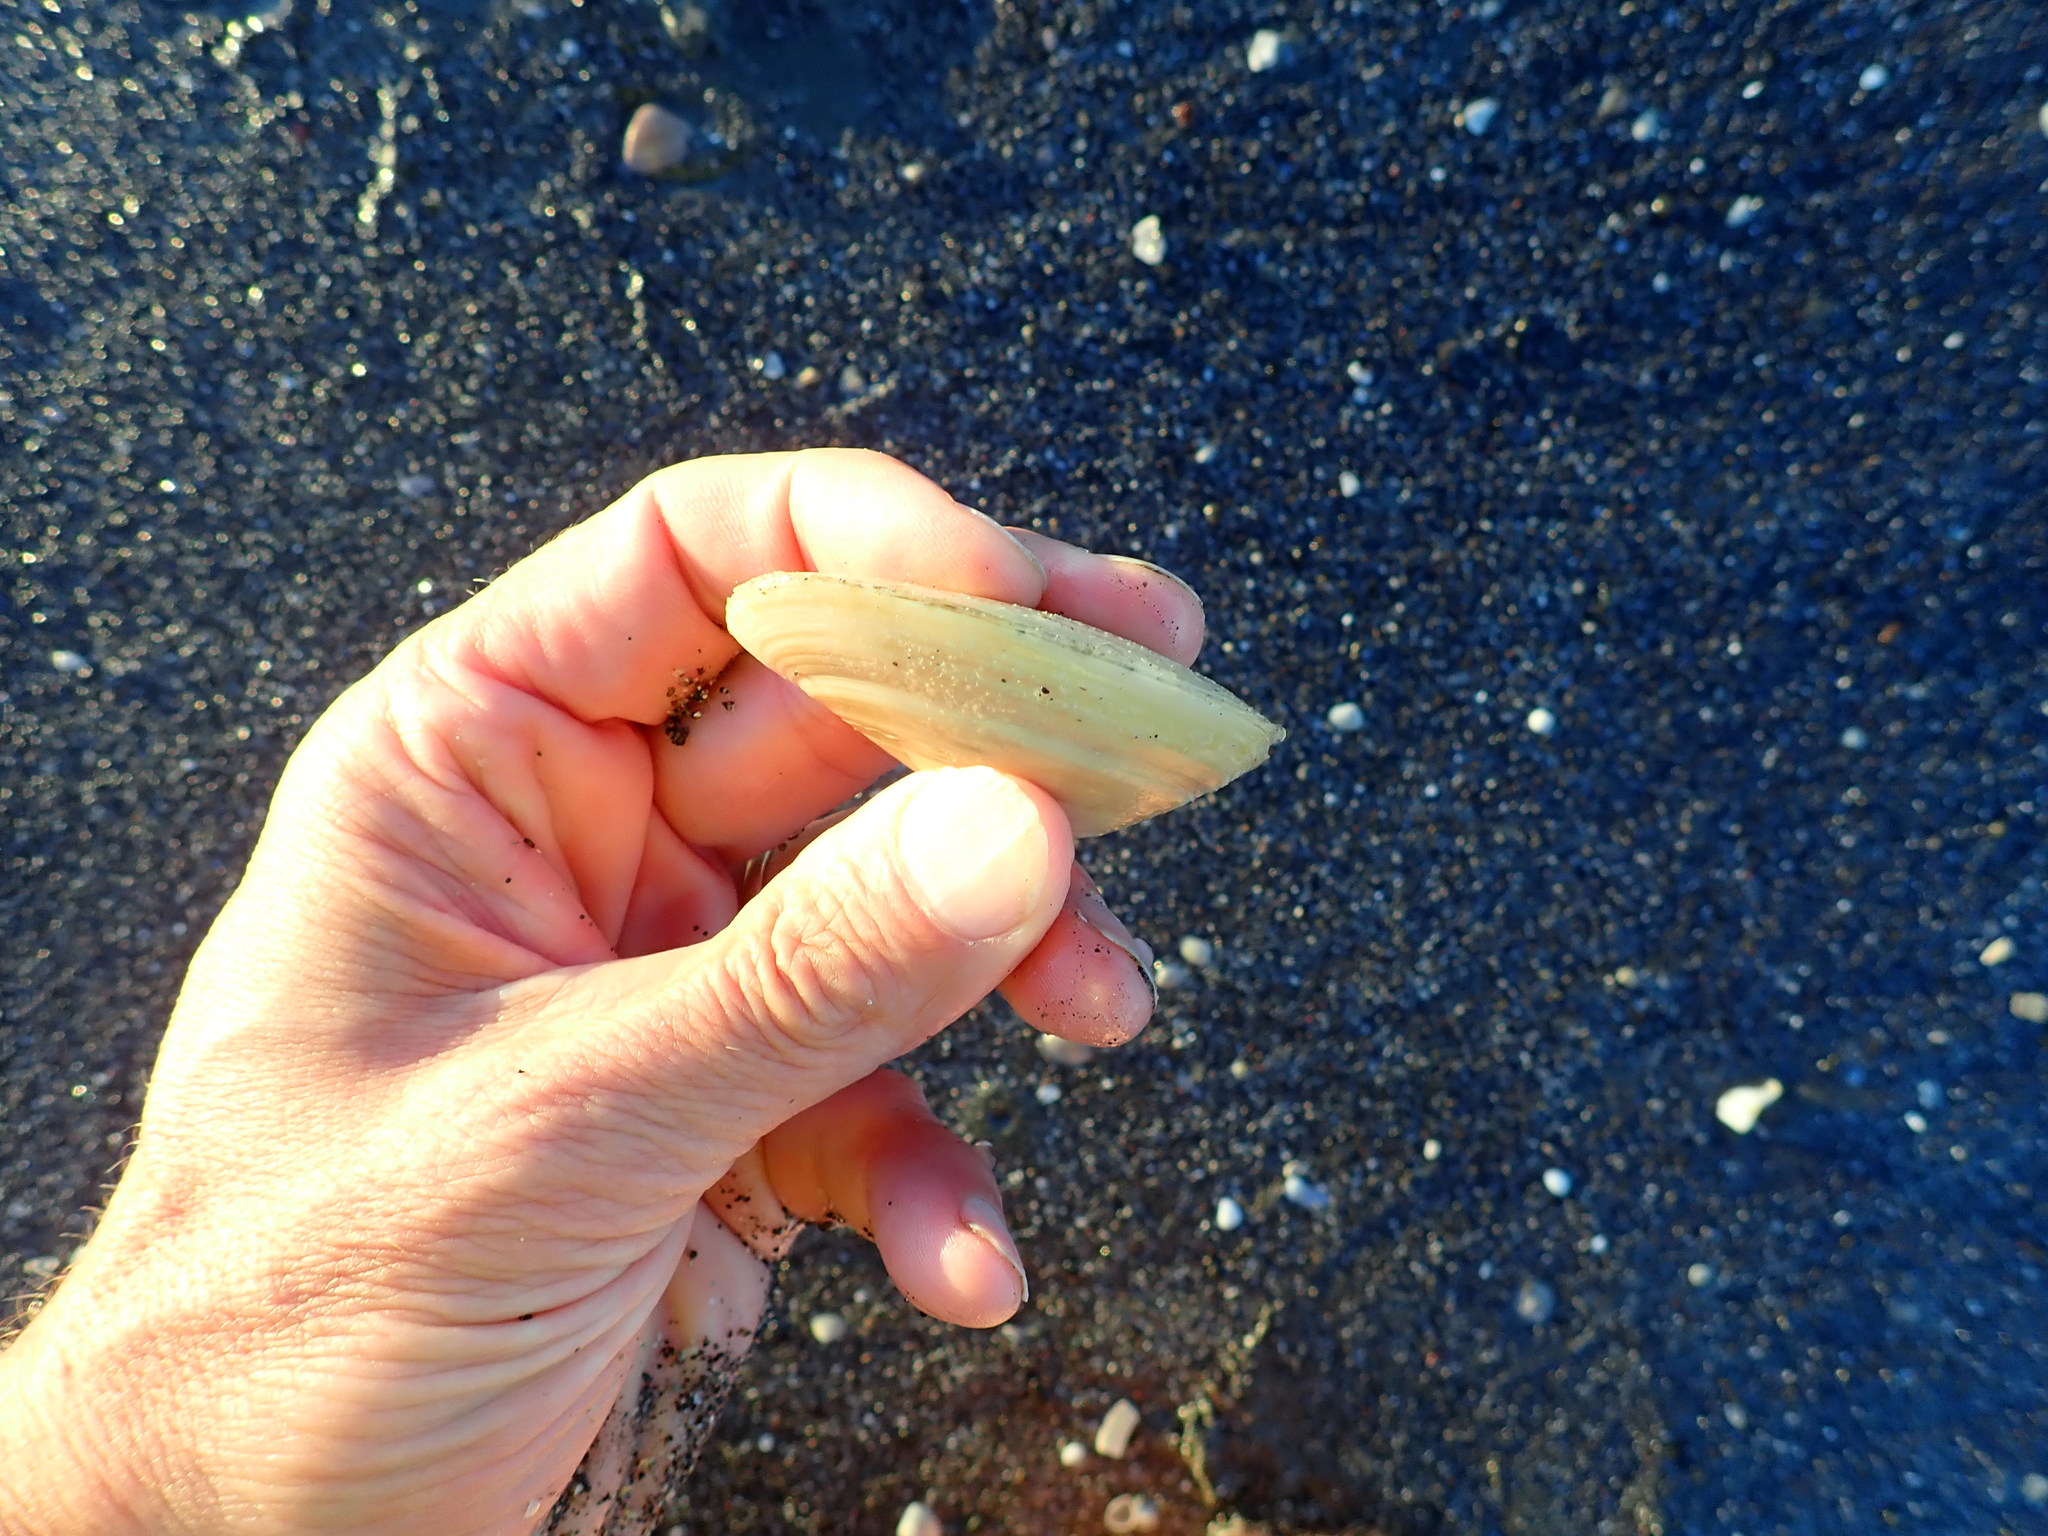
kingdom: Animalia
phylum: Mollusca
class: Bivalvia
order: Venerida
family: Mesodesmatidae
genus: Paphies
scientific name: Paphies donacina
